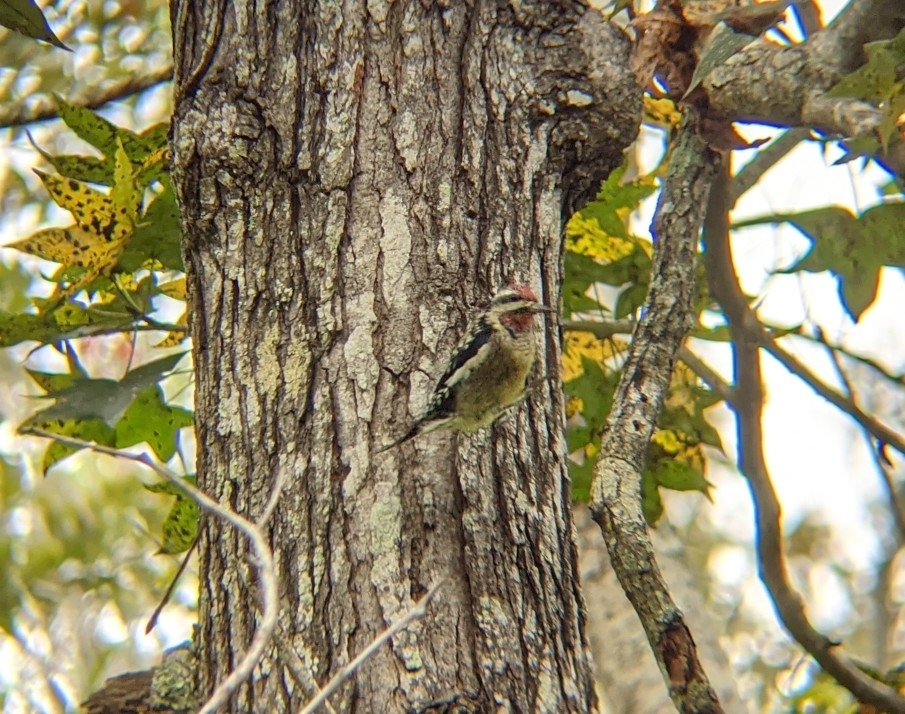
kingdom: Animalia
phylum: Chordata
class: Aves
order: Piciformes
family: Picidae
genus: Sphyrapicus
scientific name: Sphyrapicus varius
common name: Yellow-bellied sapsucker
